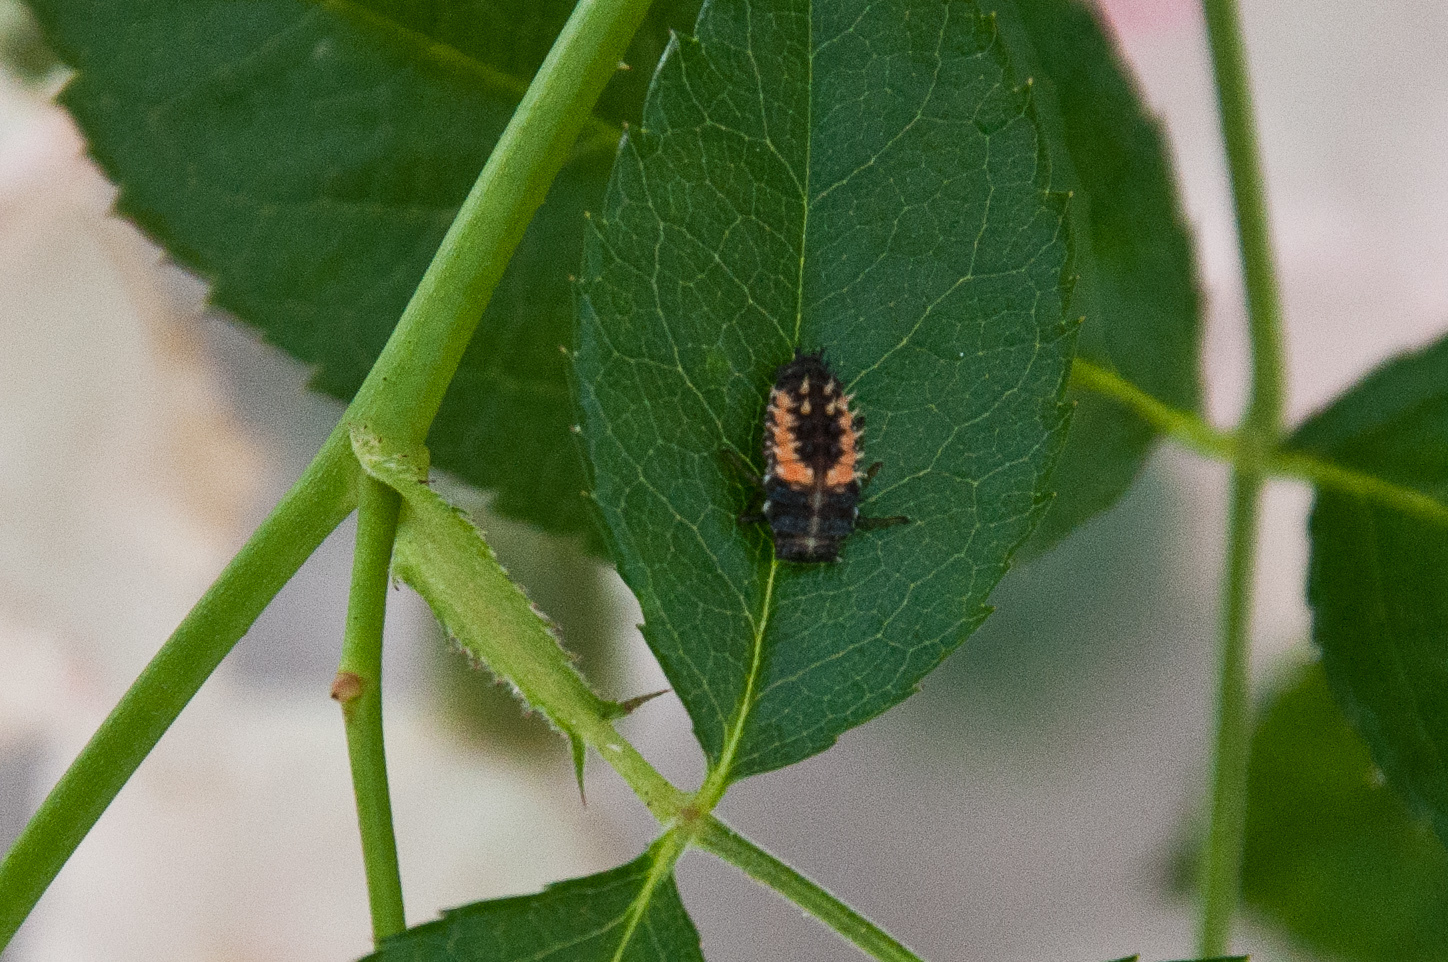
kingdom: Animalia
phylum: Arthropoda
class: Insecta
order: Coleoptera
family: Coccinellidae
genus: Harmonia
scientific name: Harmonia axyridis
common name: Harlequin ladybird
